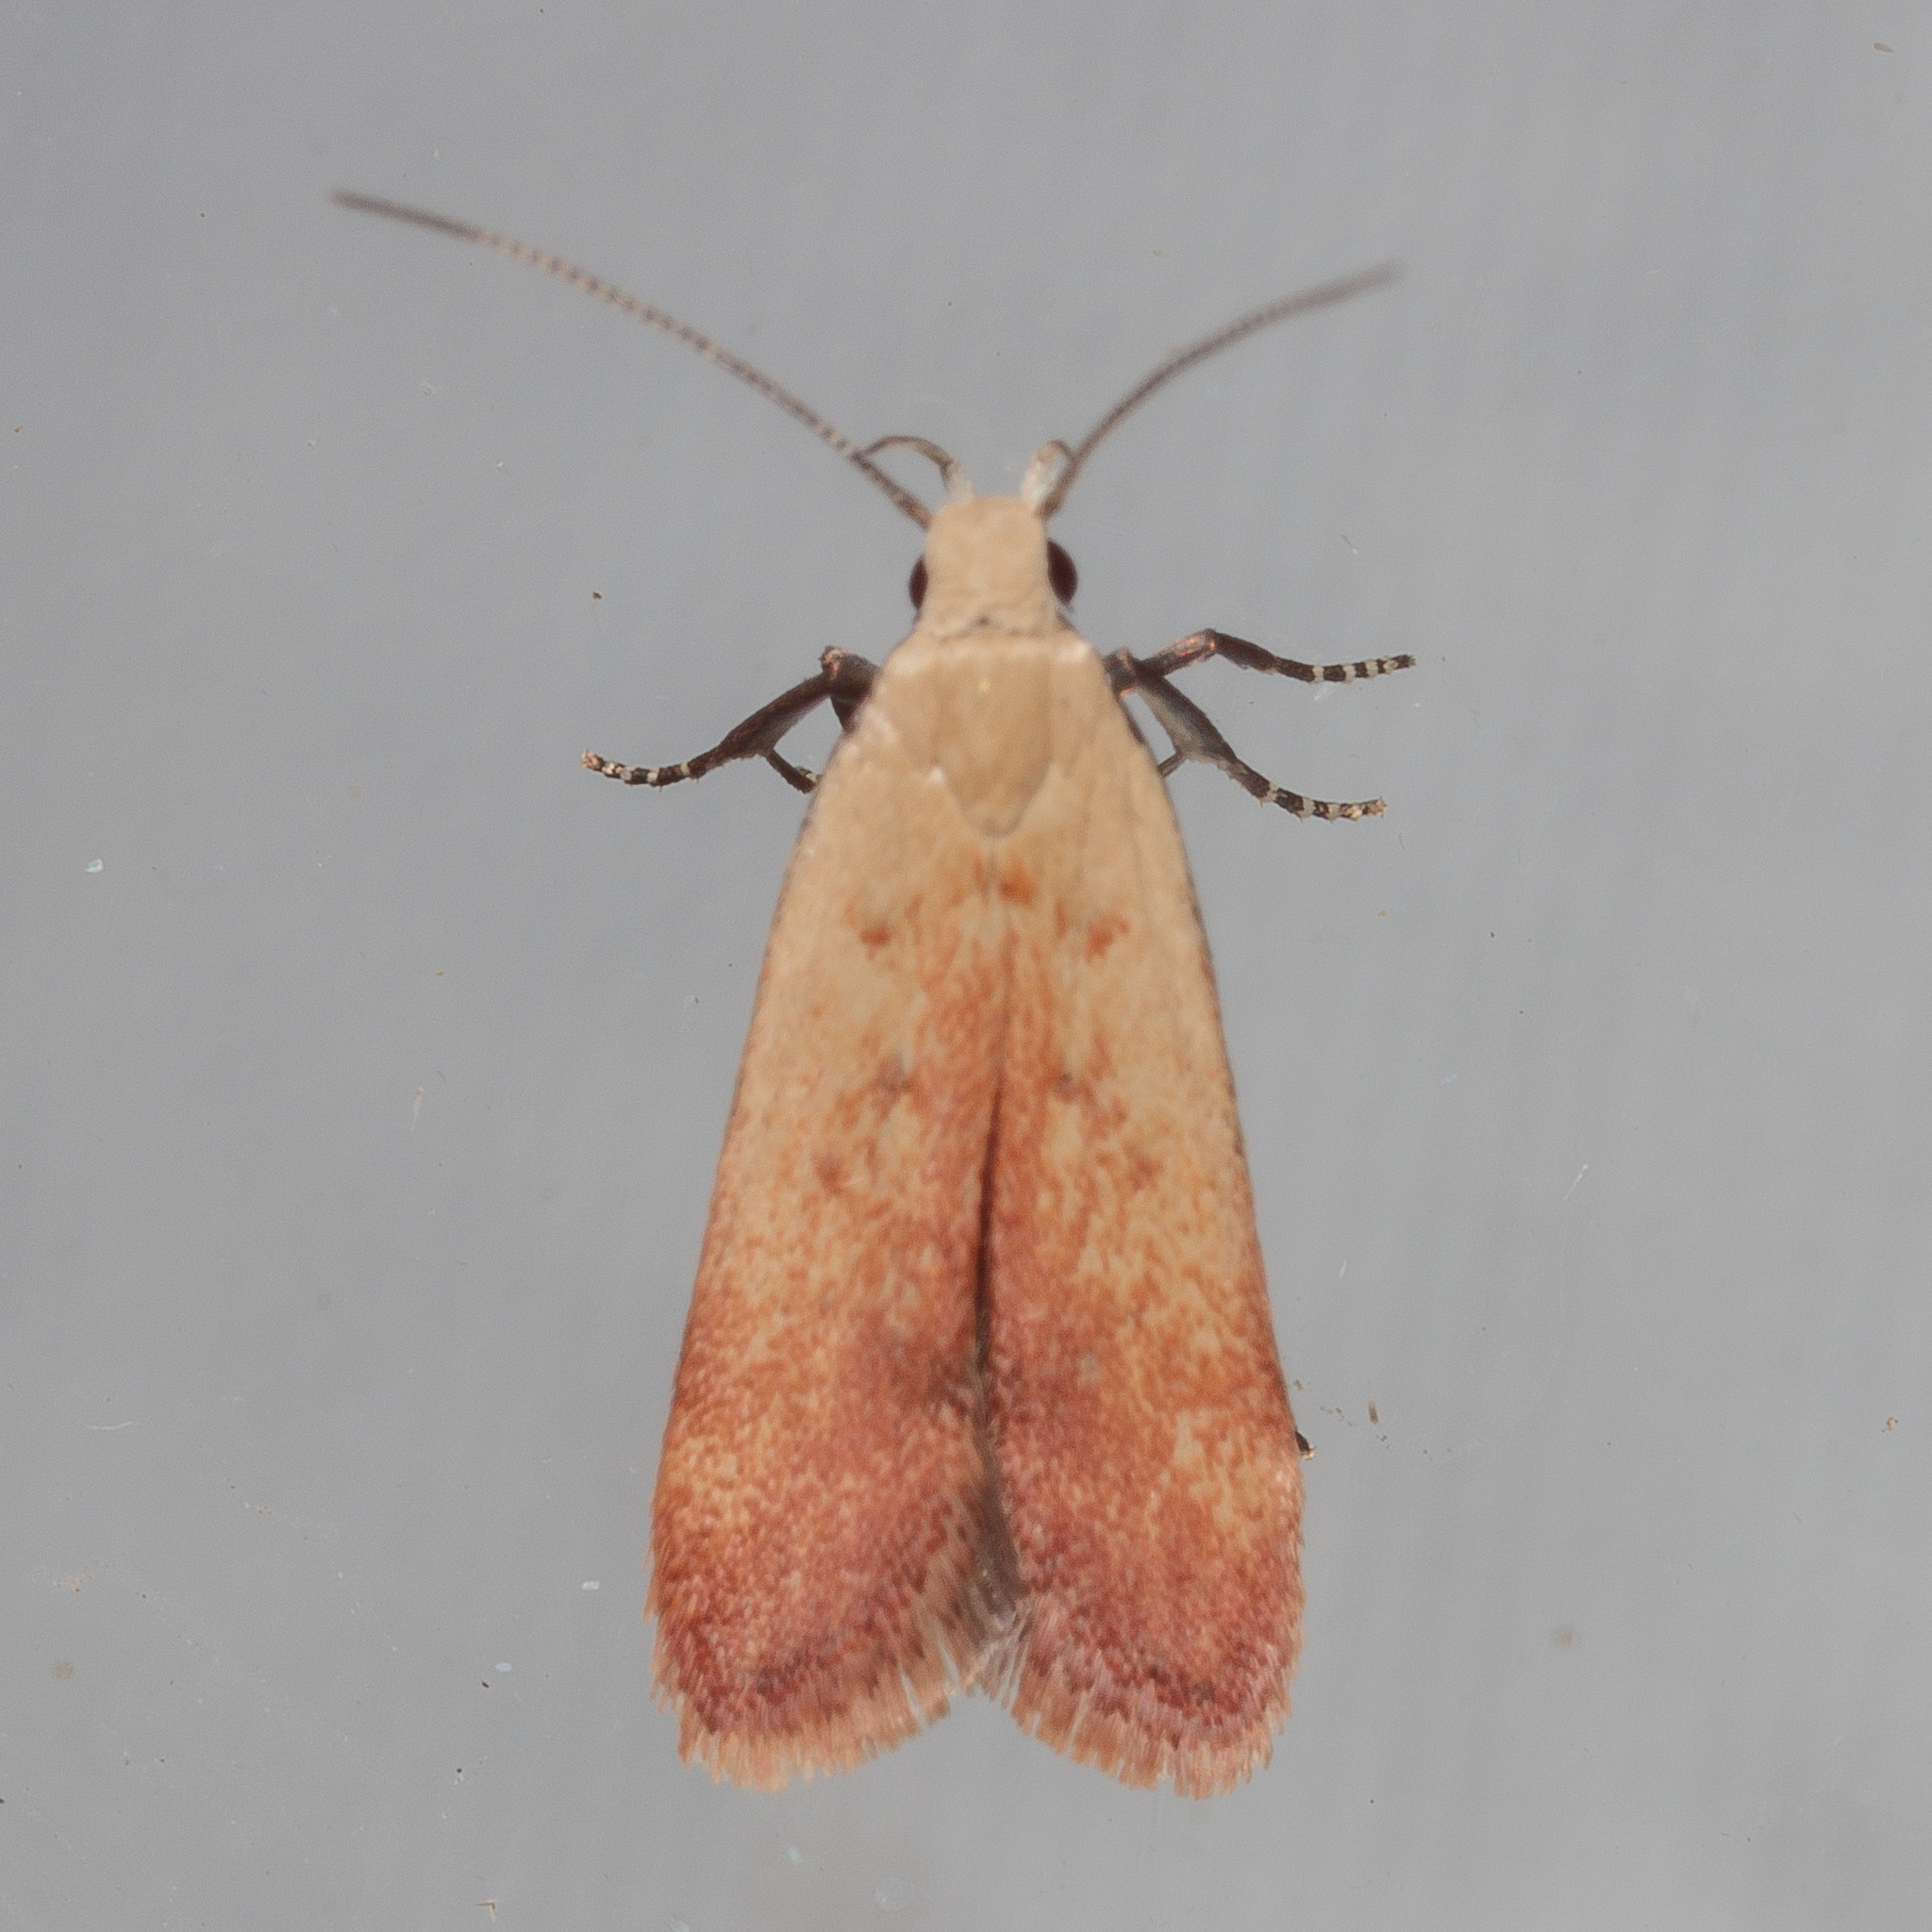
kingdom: Animalia
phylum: Arthropoda
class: Insecta
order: Lepidoptera
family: Gelechiidae
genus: Anacampsis
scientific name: Anacampsis fullonella
